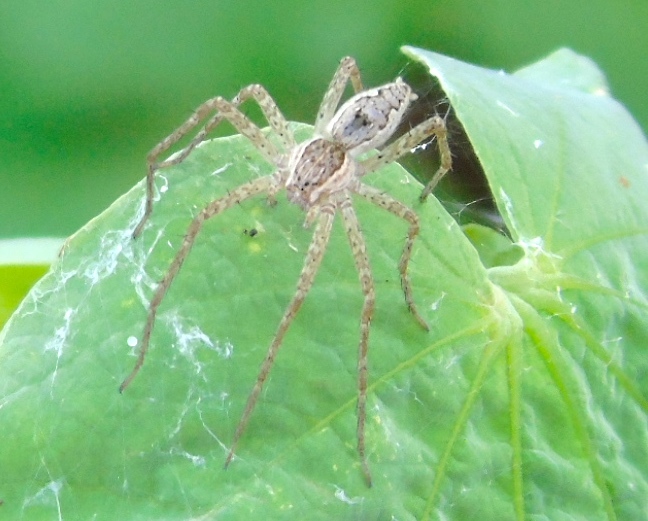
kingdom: Animalia
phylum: Arthropoda
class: Arachnida
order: Araneae
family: Pisauridae
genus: Tinus
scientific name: Tinus
